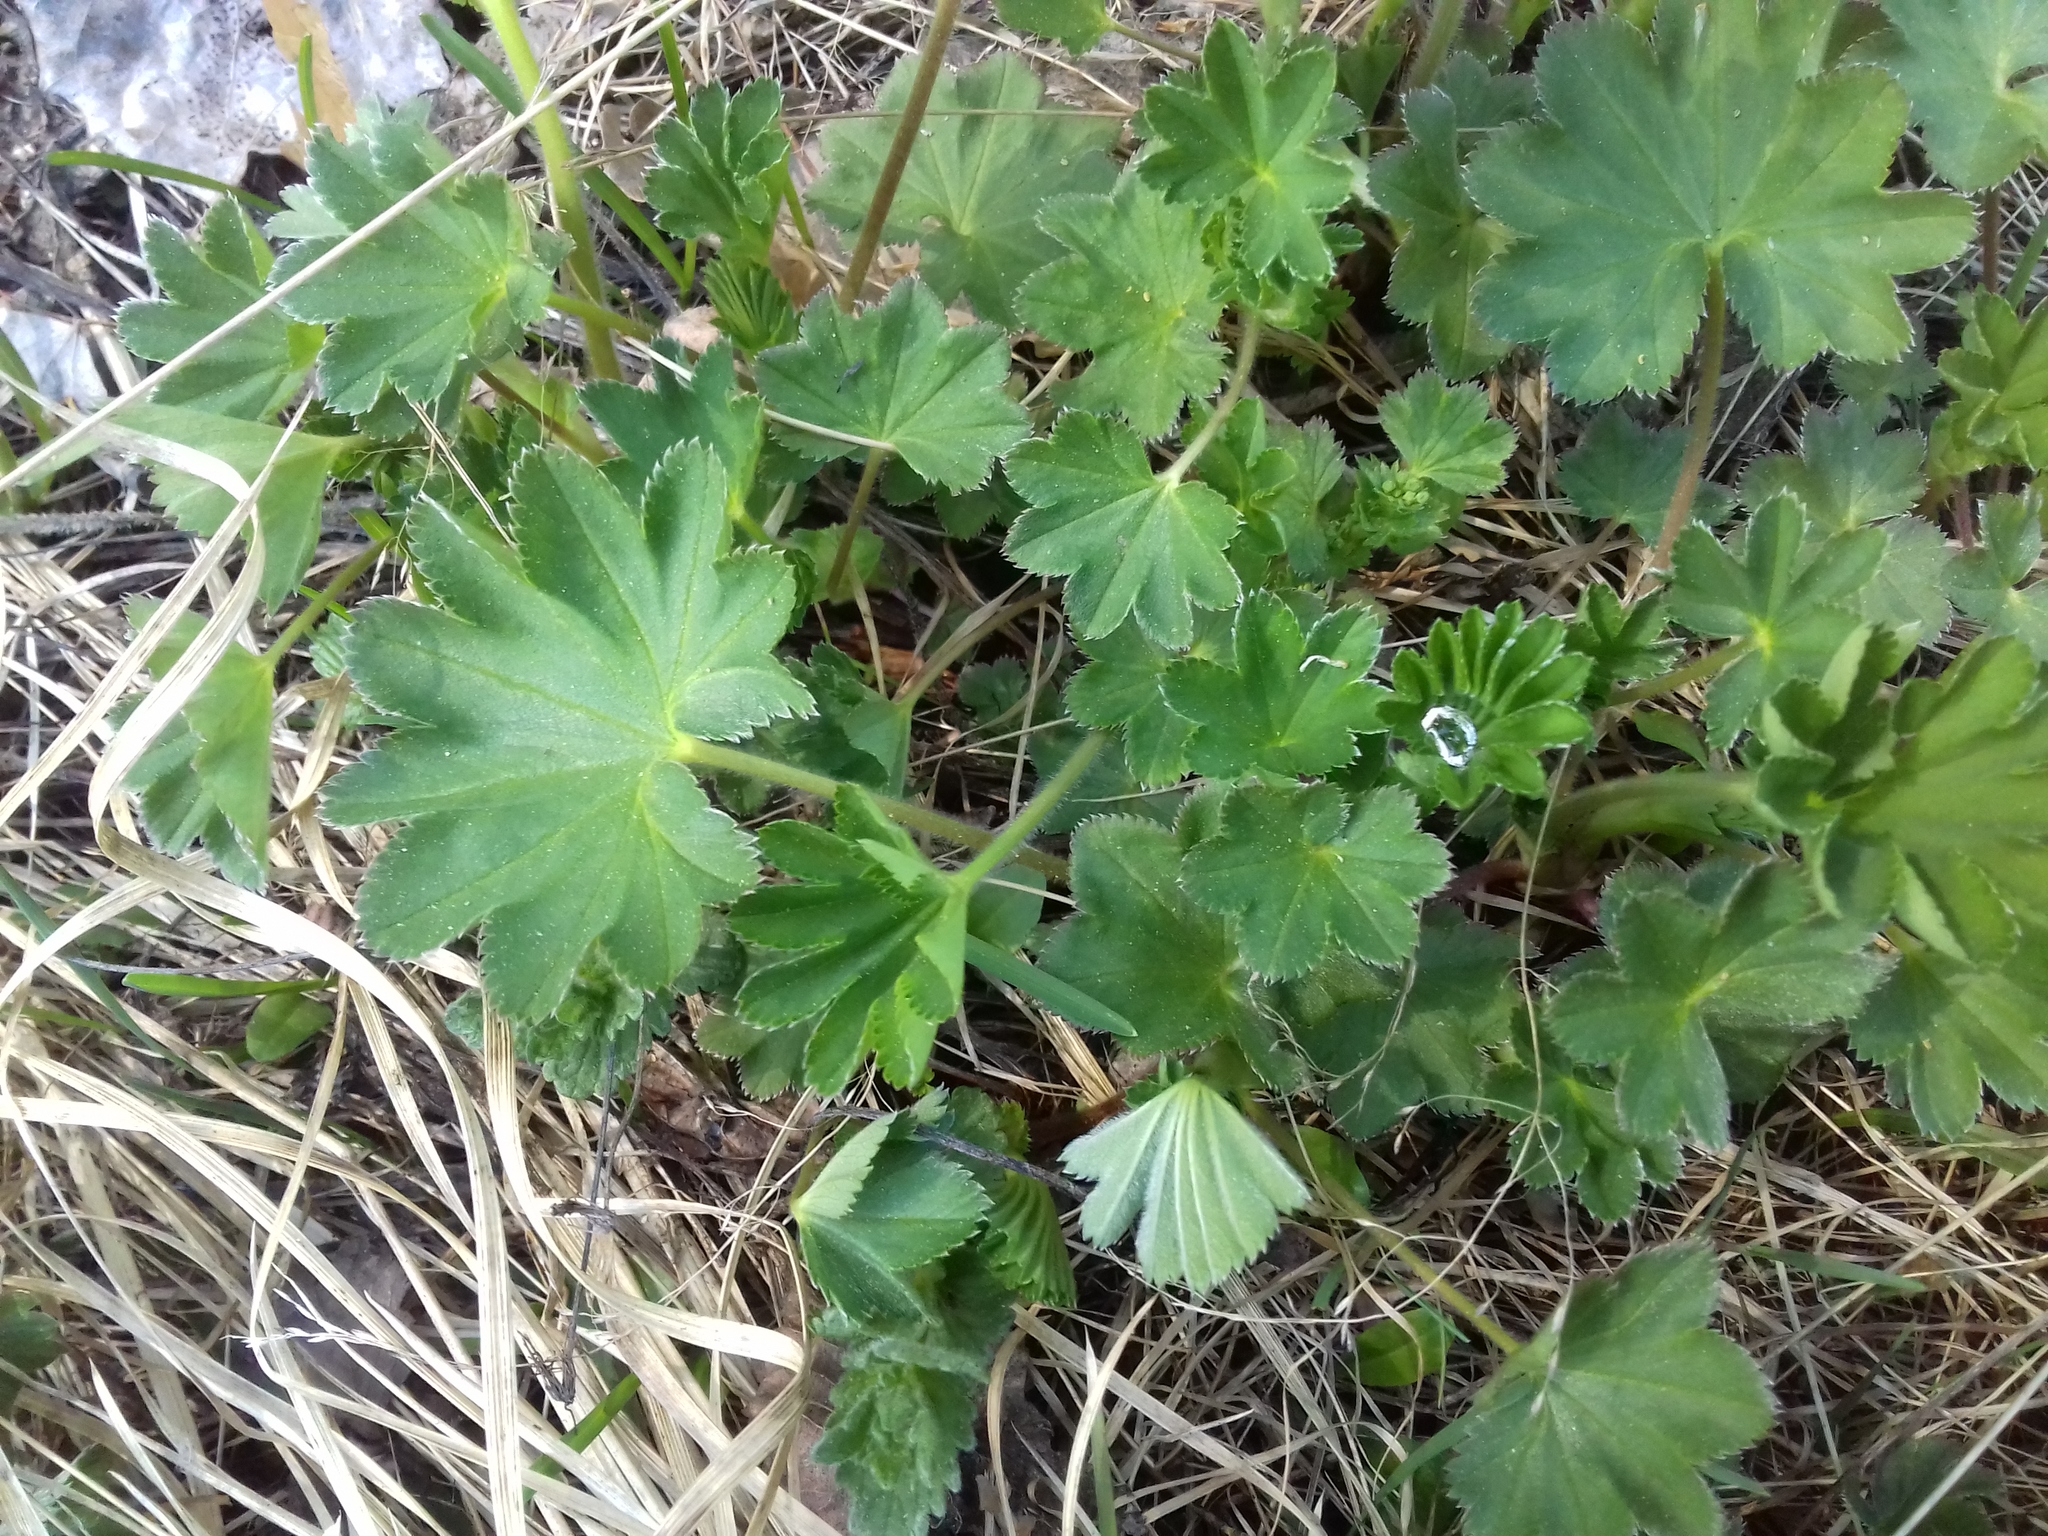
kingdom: Plantae
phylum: Tracheophyta
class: Magnoliopsida
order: Rosales
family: Rosaceae
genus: Alchemilla
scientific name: Alchemilla
